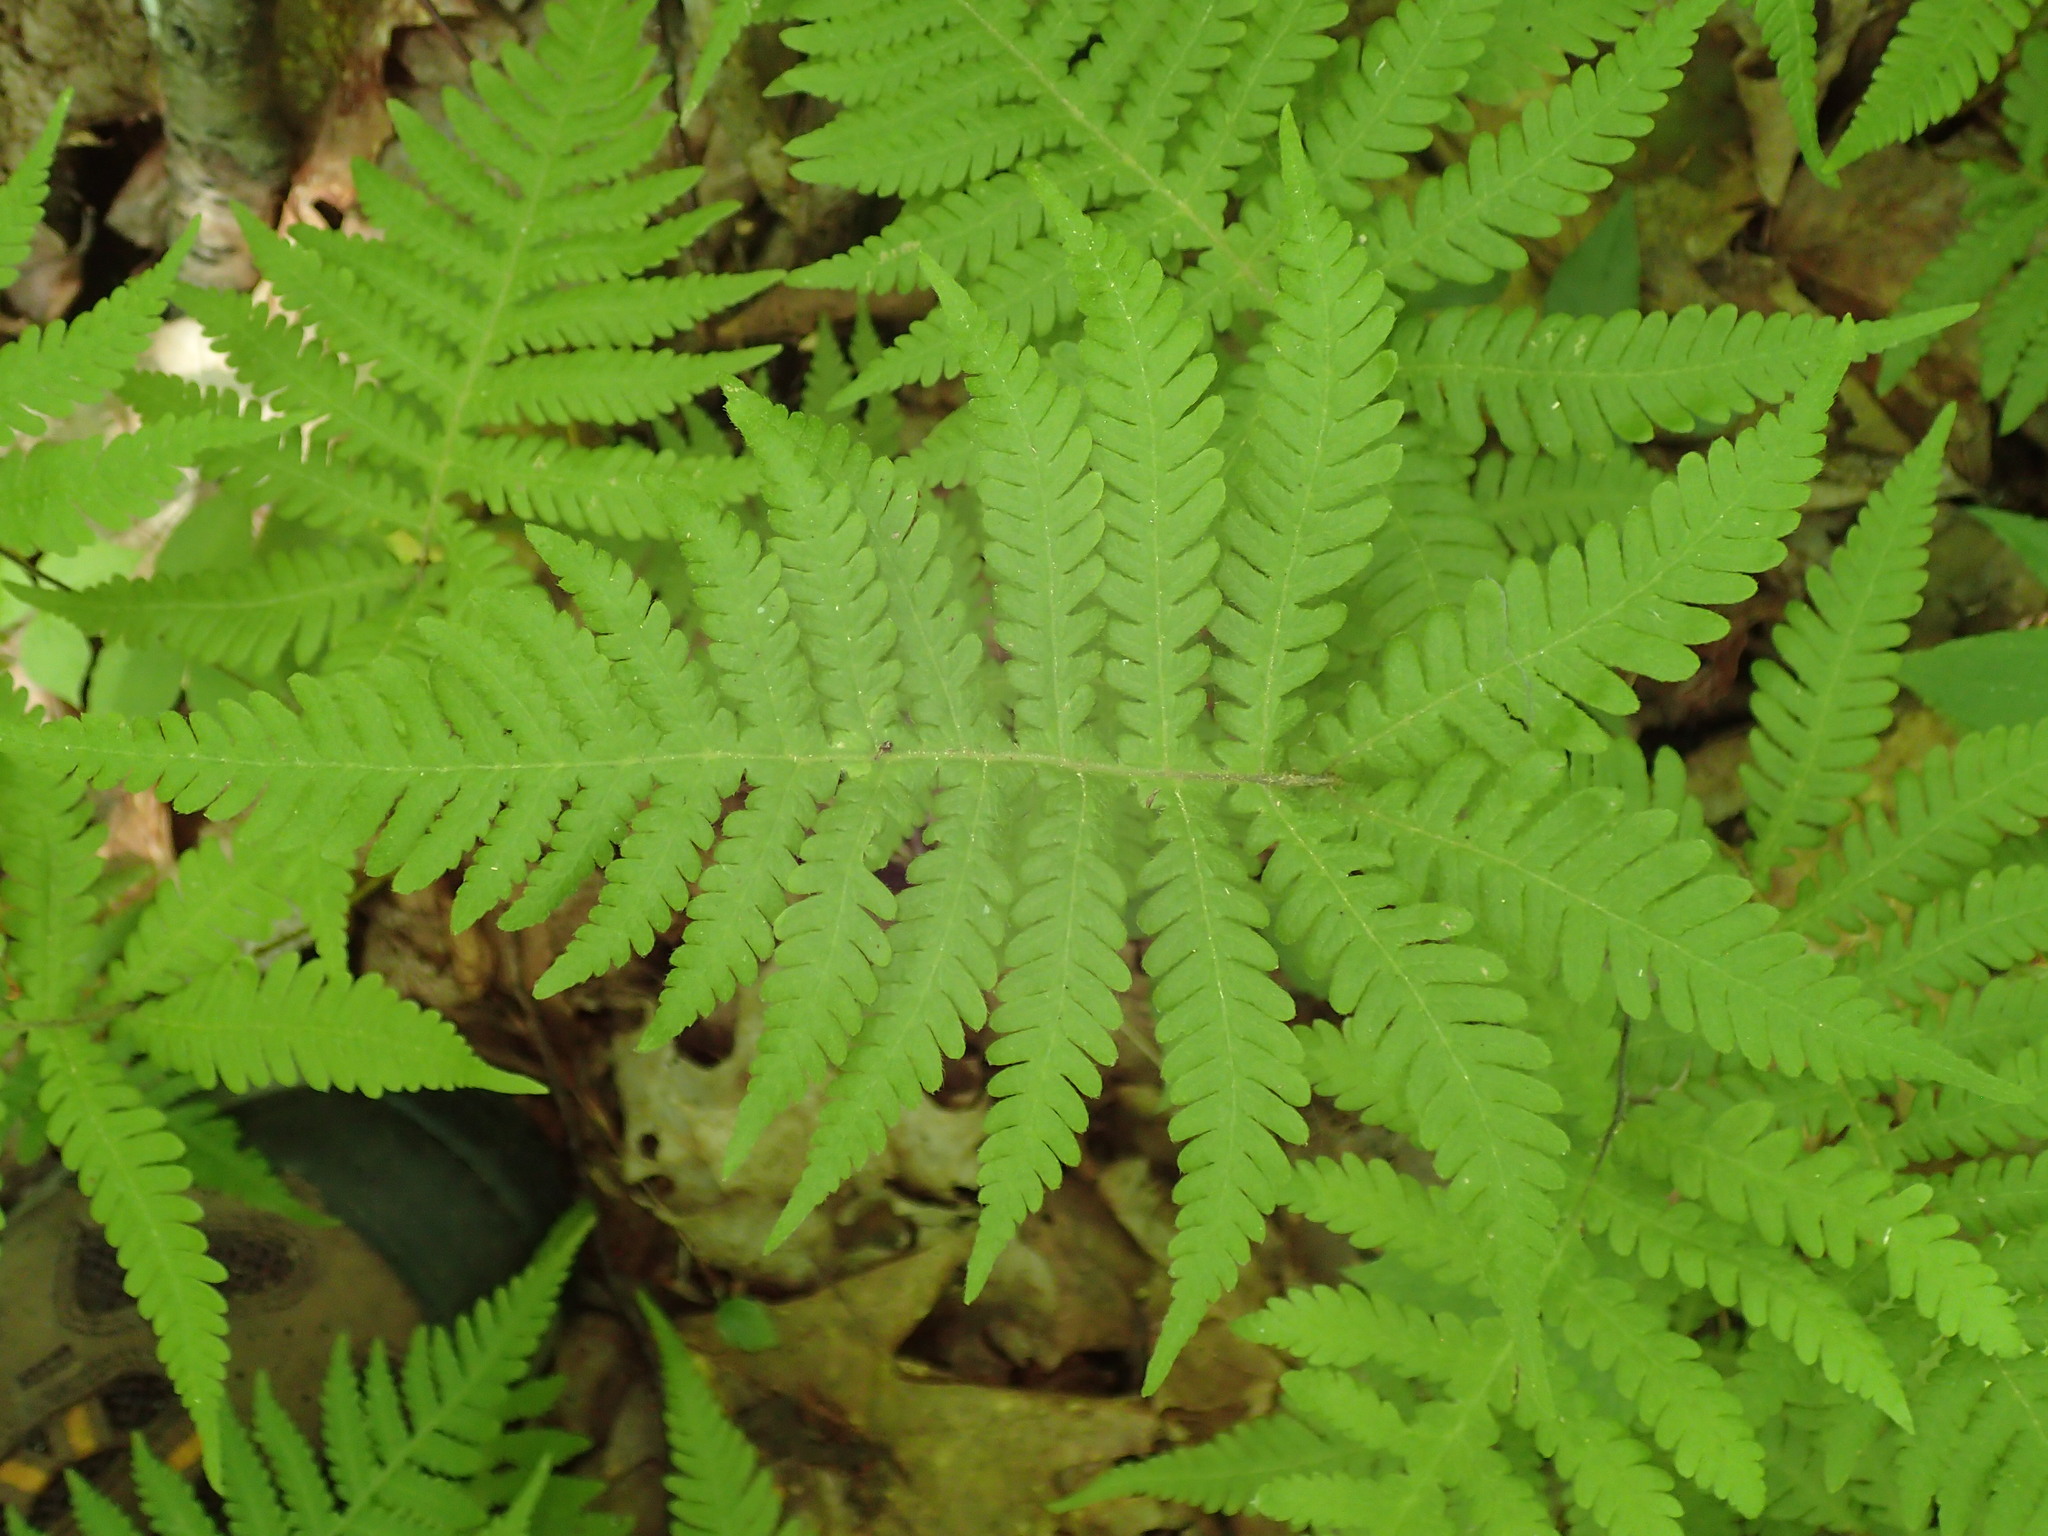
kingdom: Plantae
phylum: Tracheophyta
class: Polypodiopsida
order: Polypodiales
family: Thelypteridaceae
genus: Phegopteris
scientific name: Phegopteris connectilis
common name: Beech fern
